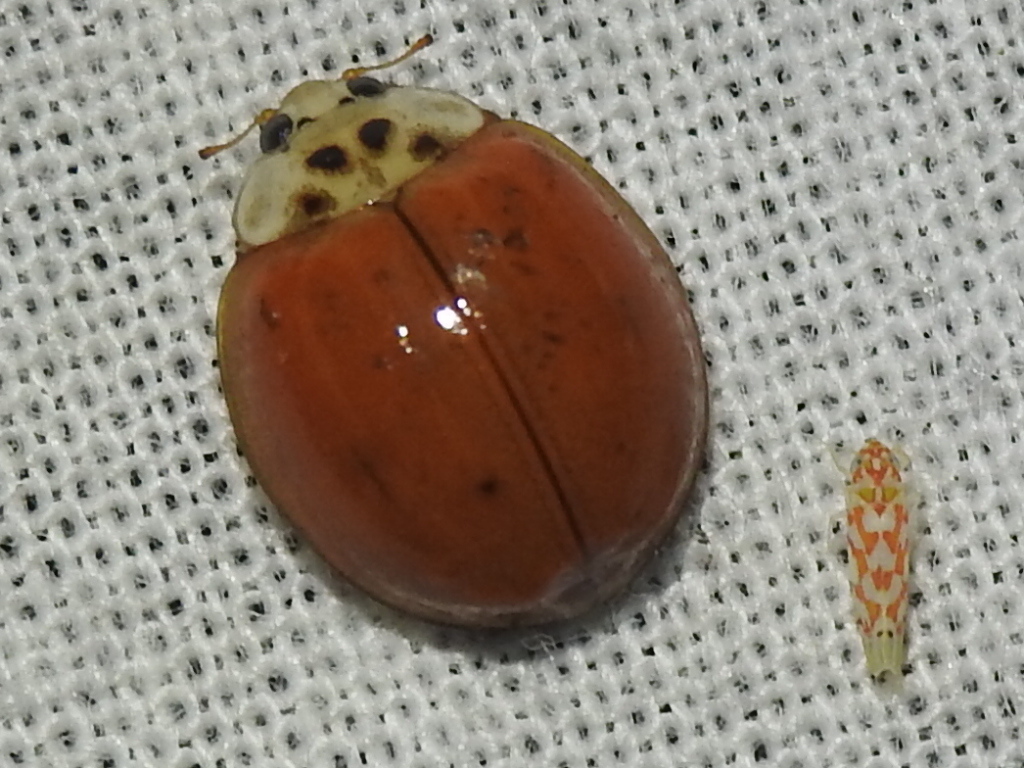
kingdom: Animalia
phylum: Arthropoda
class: Insecta
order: Coleoptera
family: Coccinellidae
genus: Harmonia
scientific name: Harmonia axyridis
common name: Harlequin ladybird
